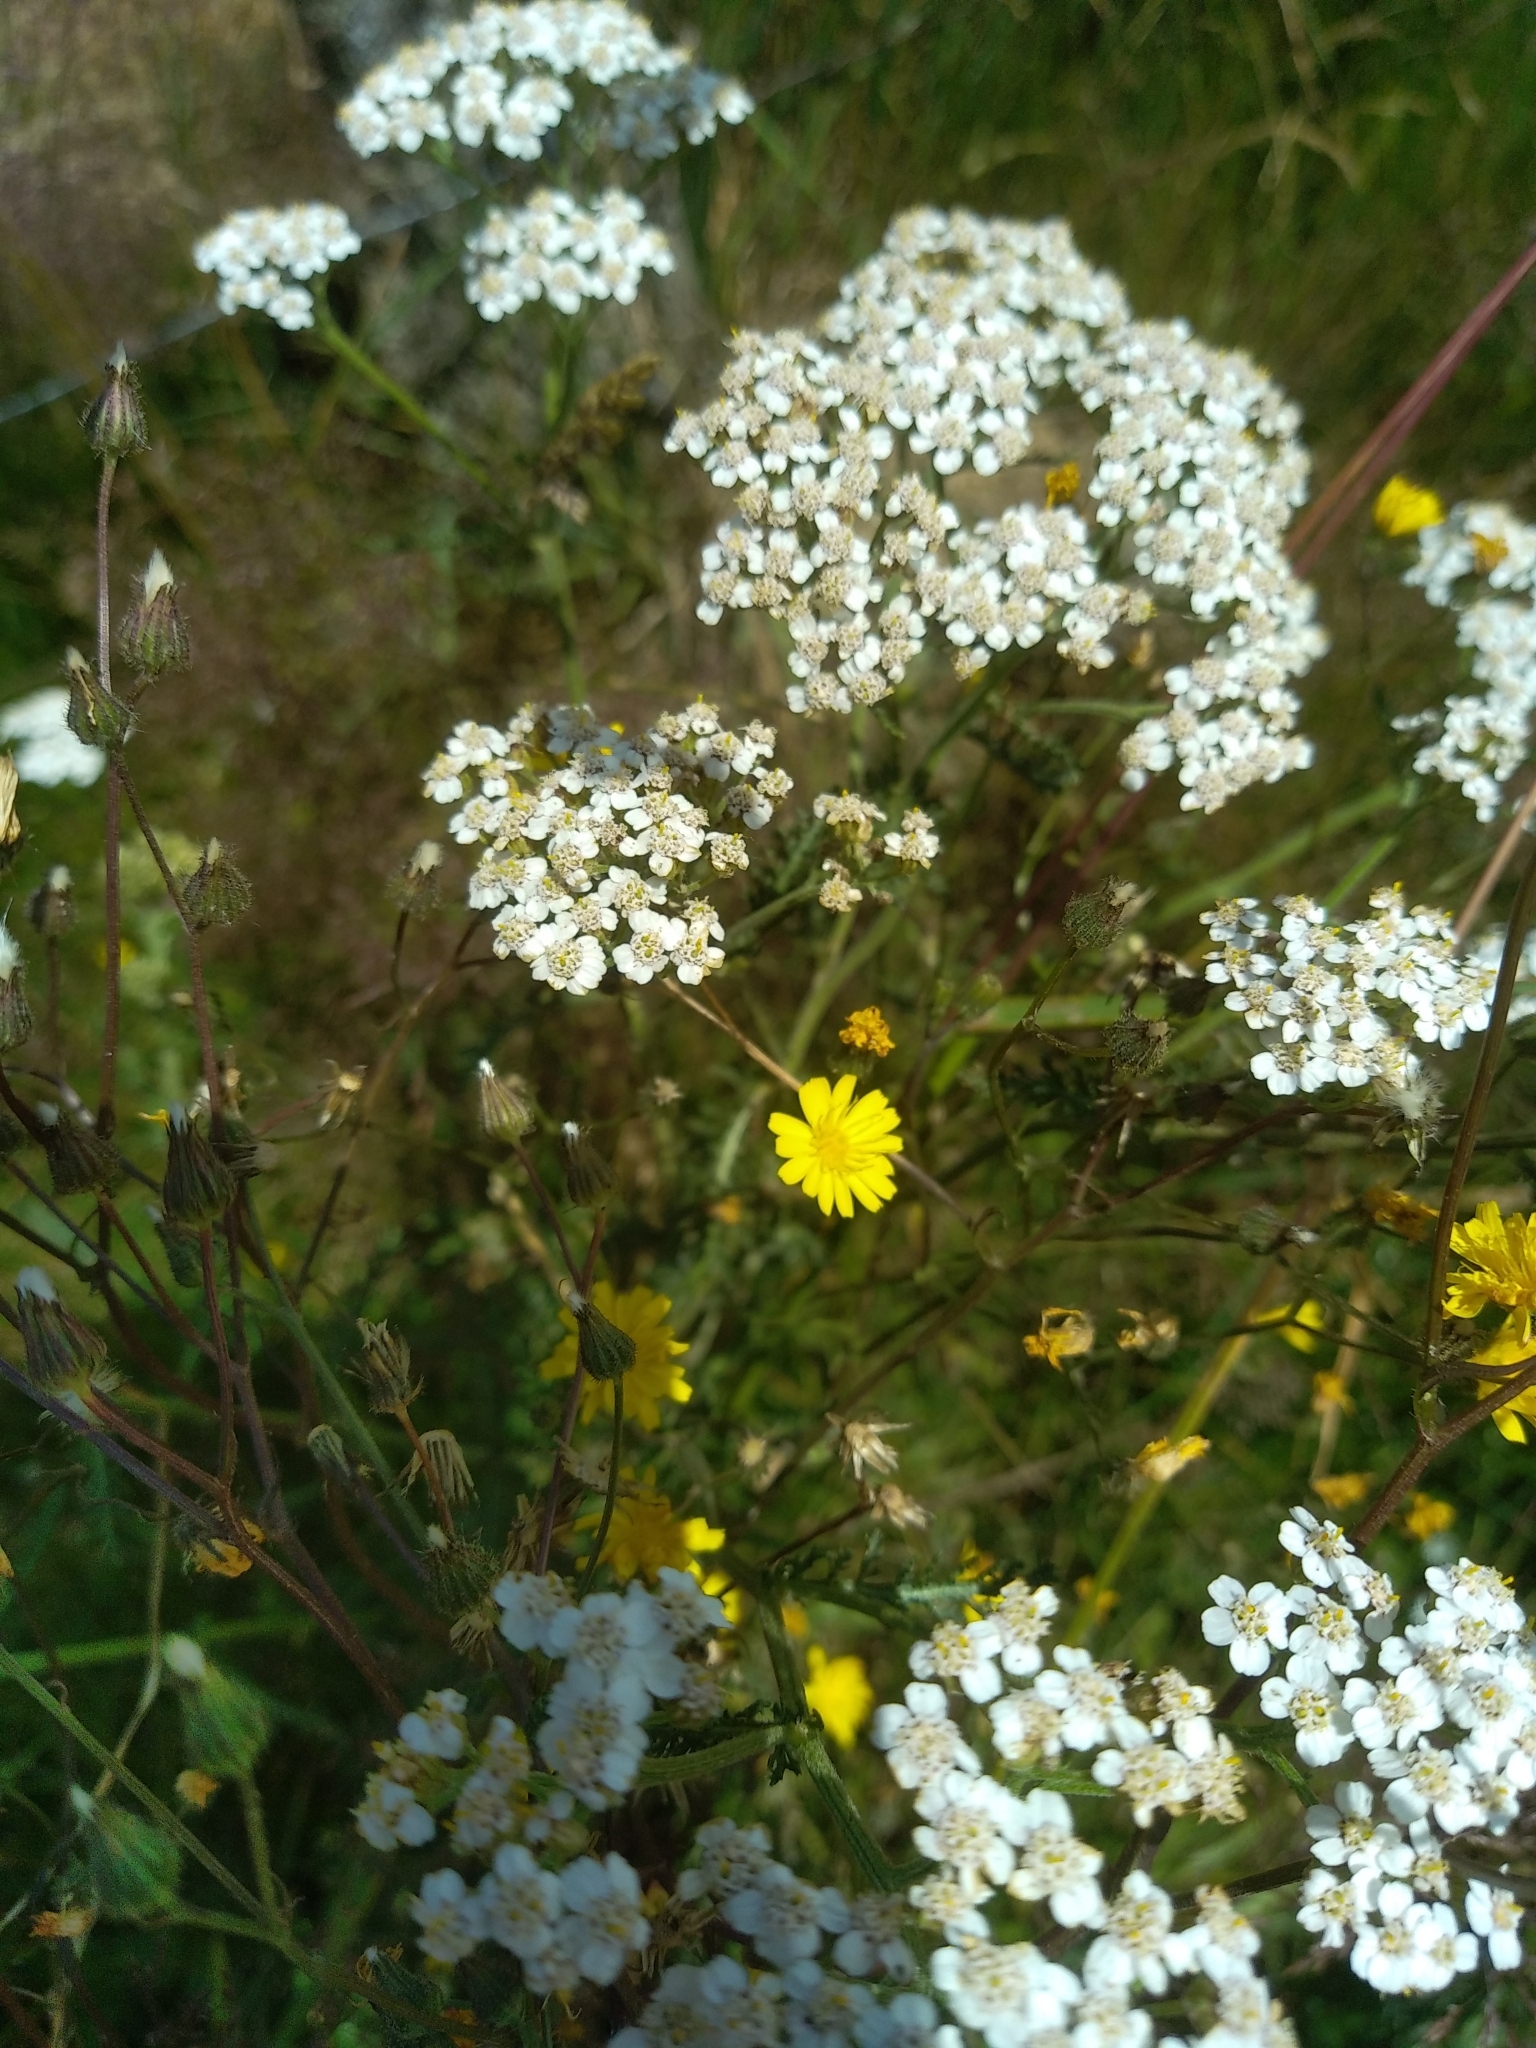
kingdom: Plantae
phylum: Tracheophyta
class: Magnoliopsida
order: Asterales
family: Asteraceae
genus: Achillea
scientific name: Achillea millefolium
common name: Yarrow
